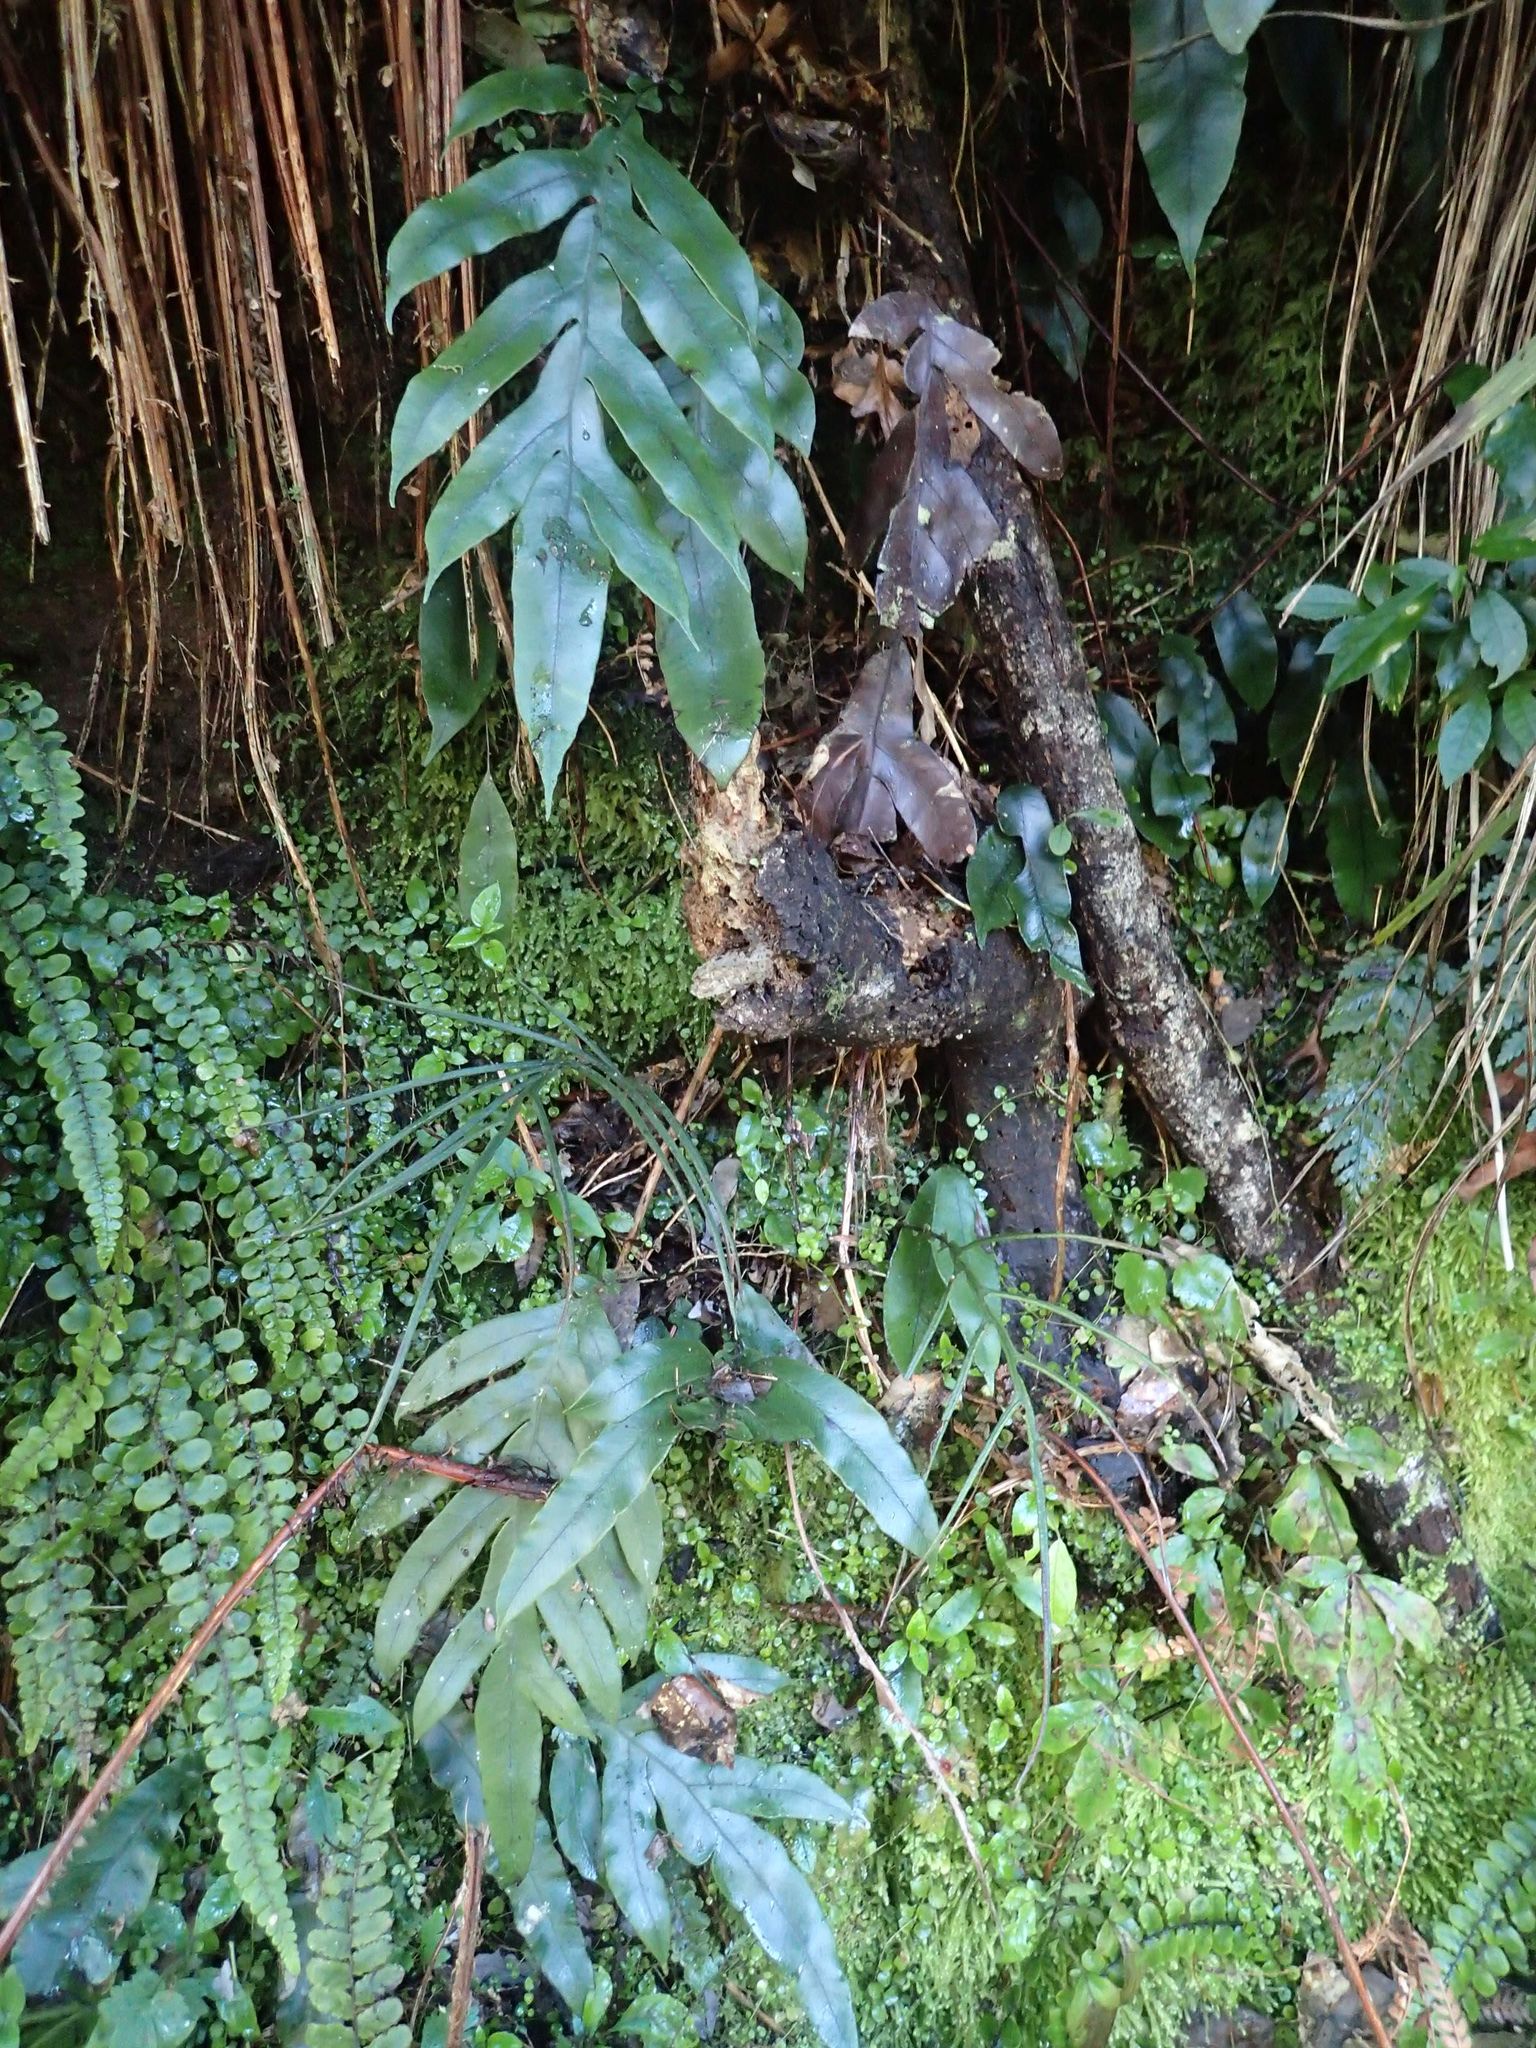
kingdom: Plantae
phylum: Tracheophyta
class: Polypodiopsida
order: Polypodiales
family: Blechnaceae
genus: Austroblechnum
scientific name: Austroblechnum colensoi
